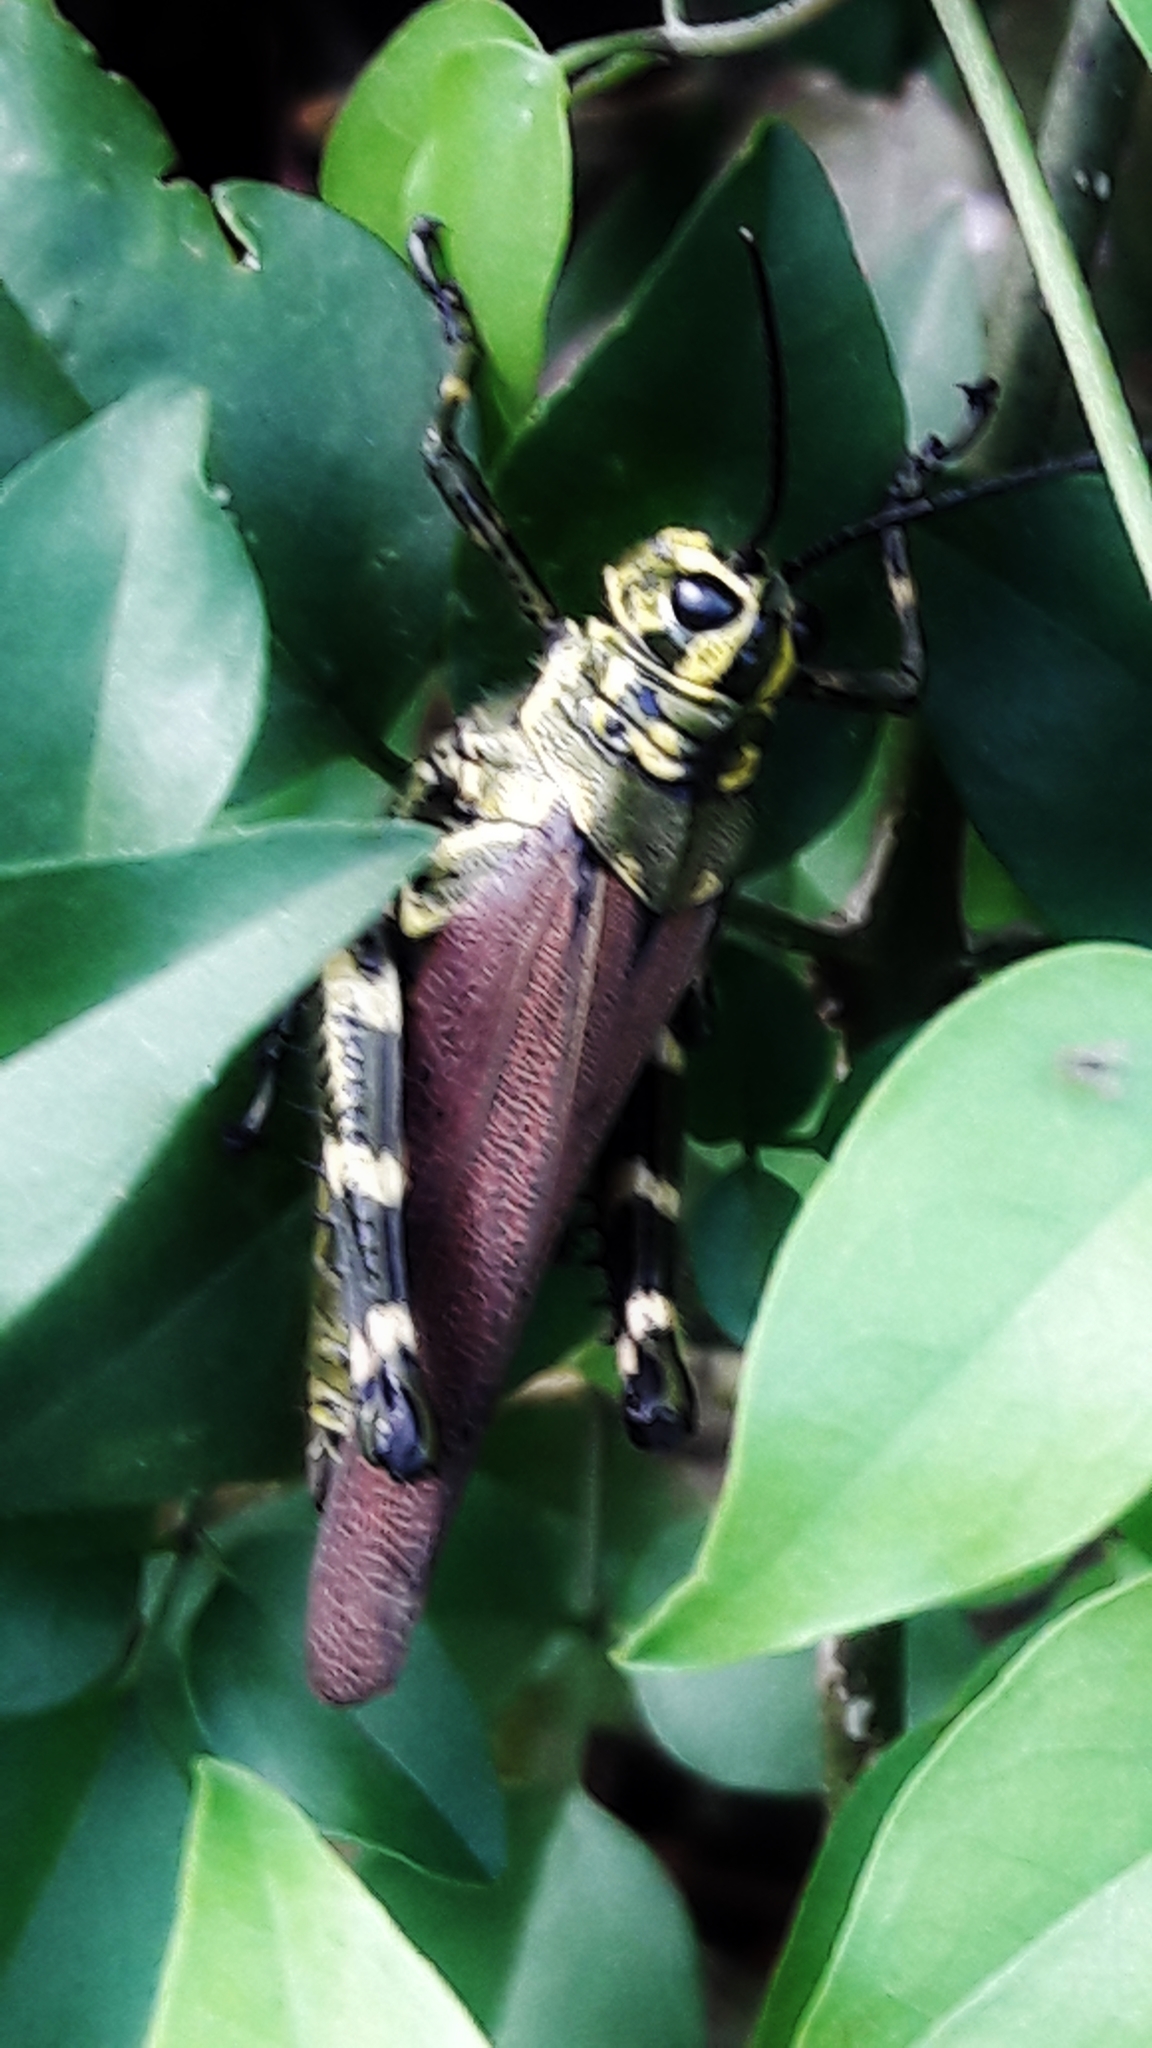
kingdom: Animalia
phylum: Arthropoda
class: Insecta
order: Orthoptera
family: Romaleidae
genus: Chromacris
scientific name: Chromacris speciosa
